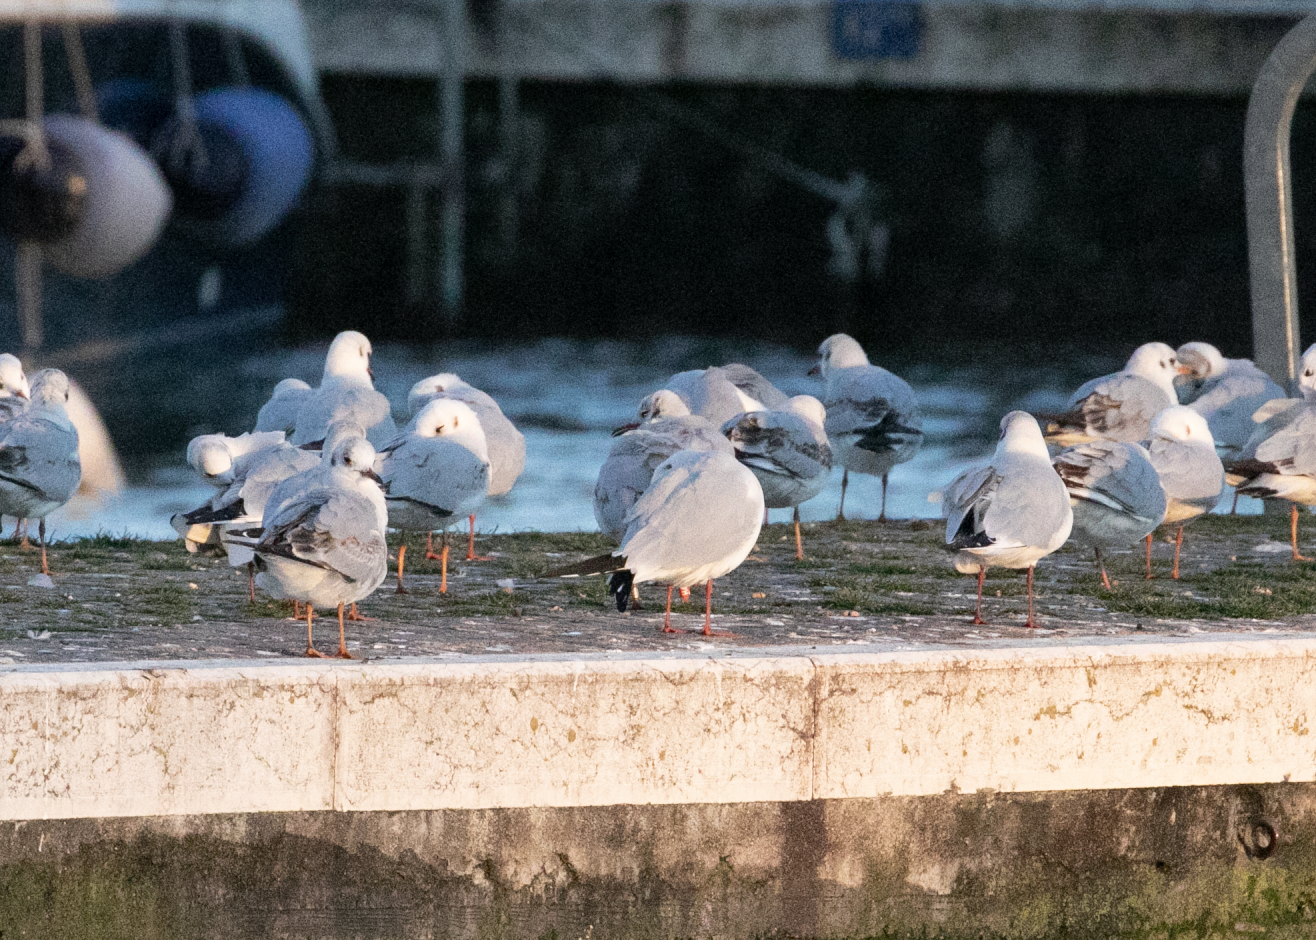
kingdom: Animalia
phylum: Chordata
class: Aves
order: Charadriiformes
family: Laridae
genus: Chroicocephalus
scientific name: Chroicocephalus ridibundus
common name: Black-headed gull
